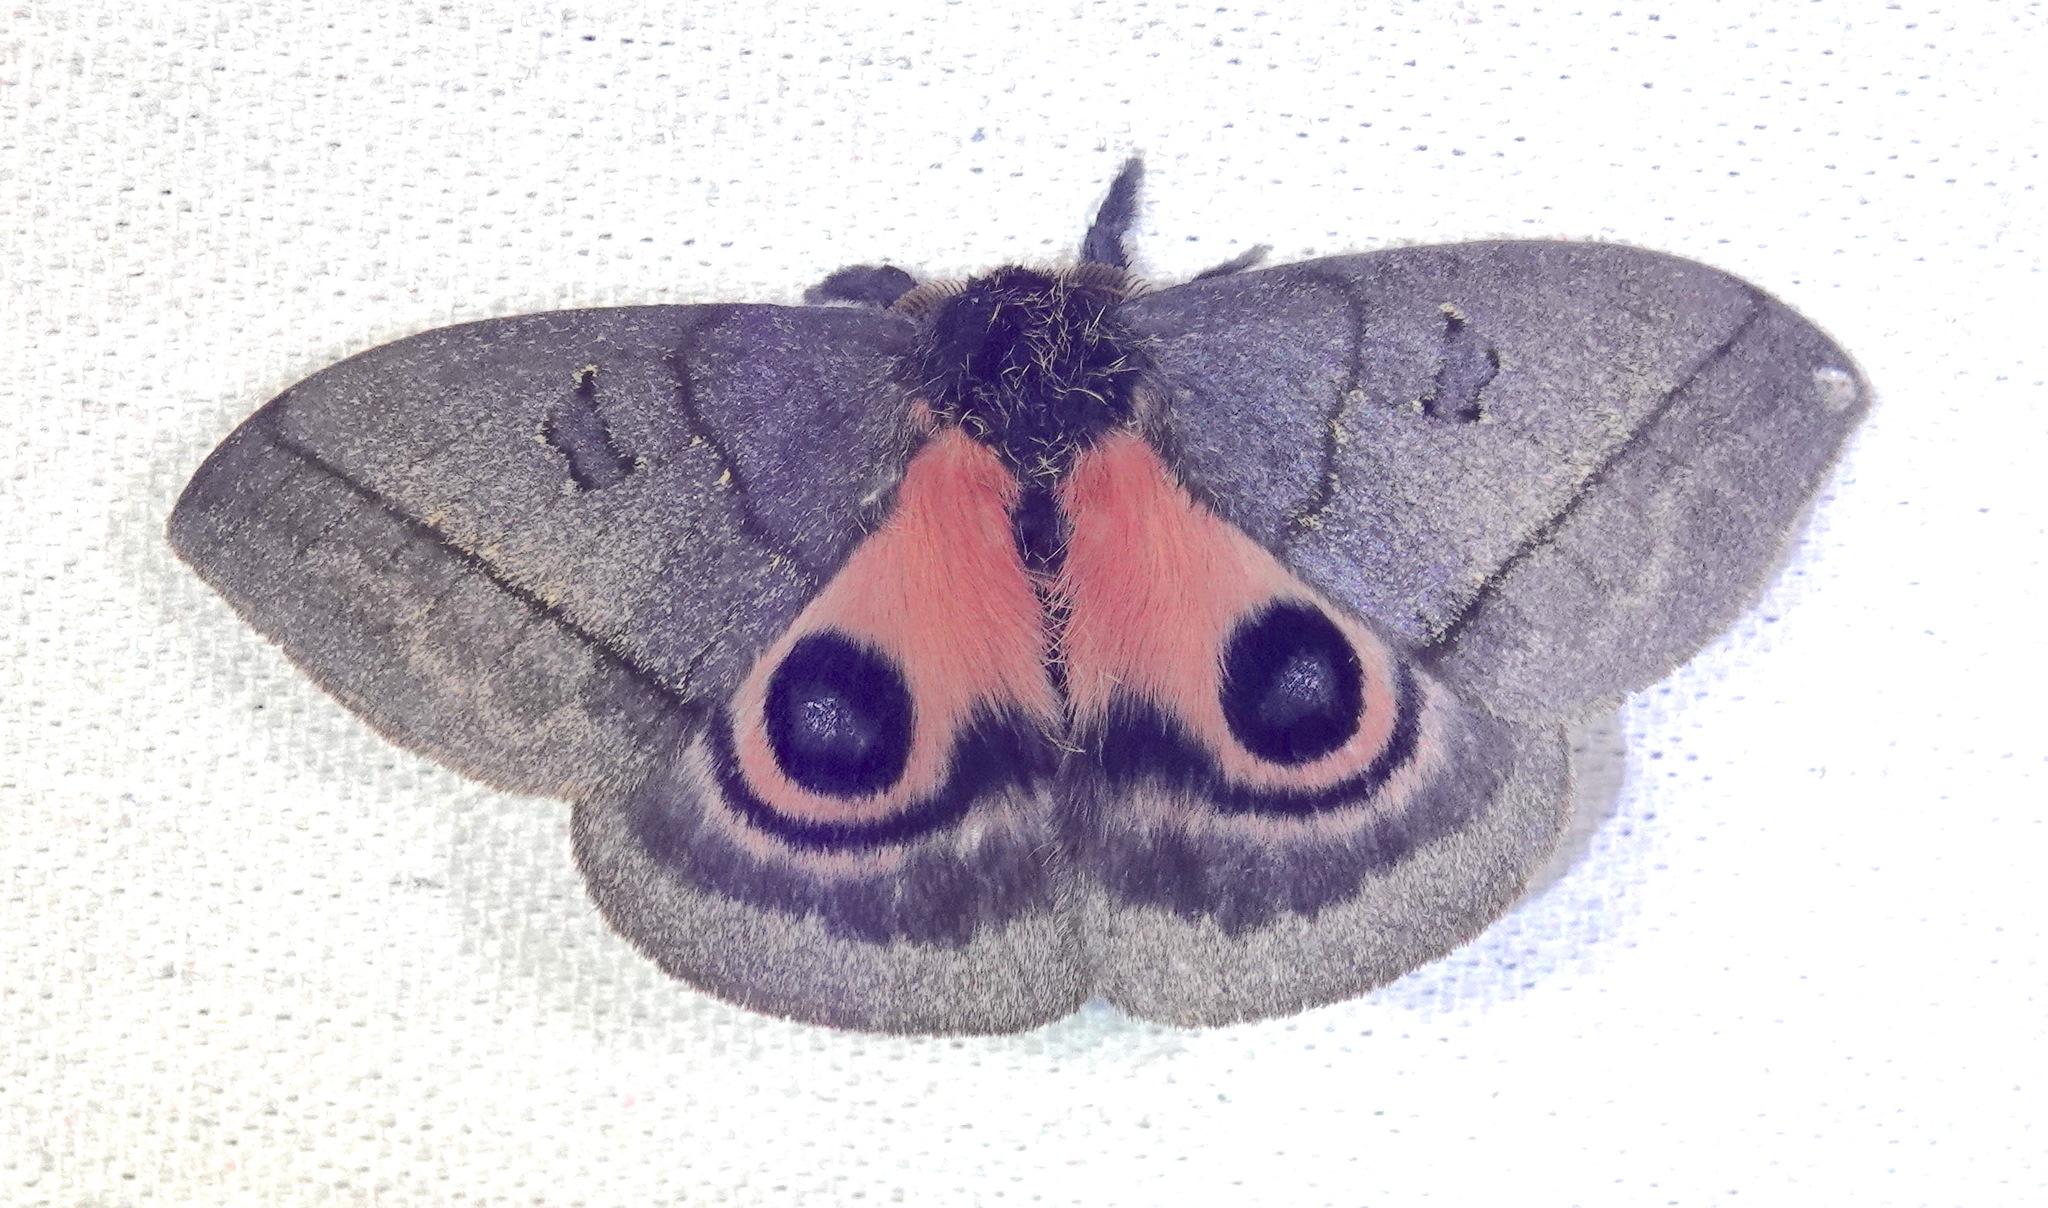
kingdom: Animalia
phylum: Arthropoda
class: Insecta
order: Lepidoptera
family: Saturniidae
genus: Automeris
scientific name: Automeris choco
